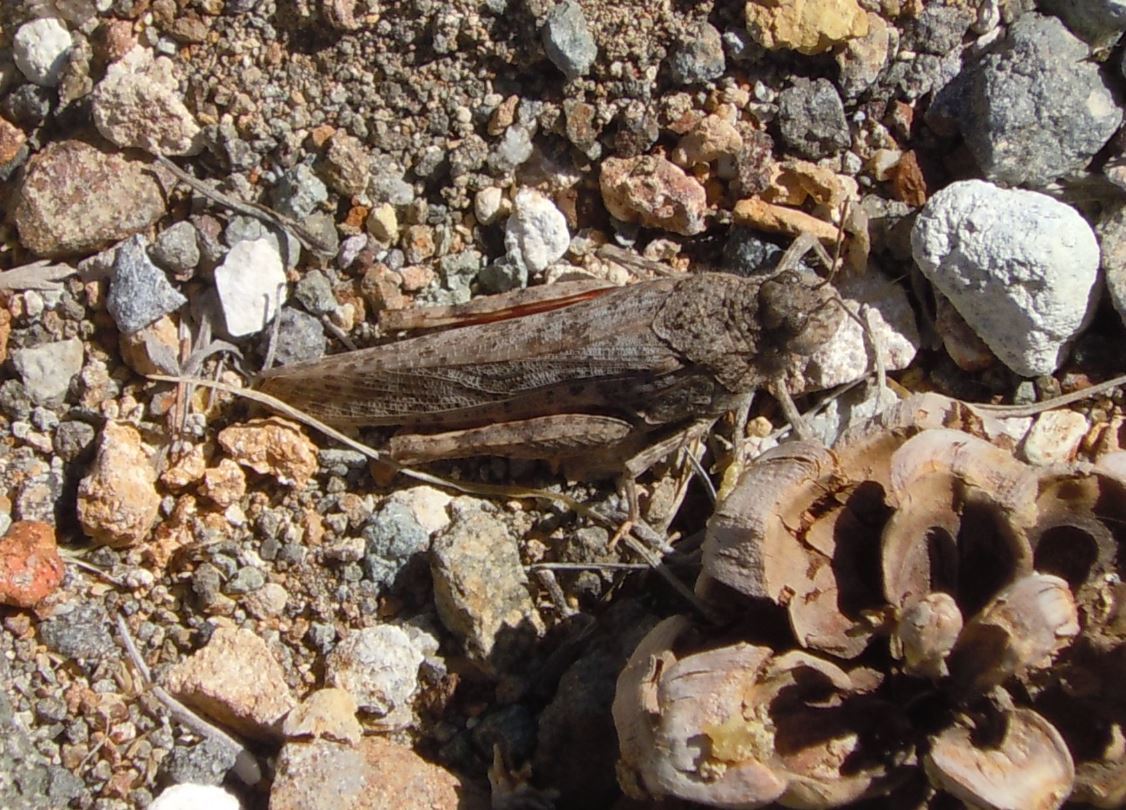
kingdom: Animalia
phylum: Arthropoda
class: Insecta
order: Orthoptera
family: Acrididae
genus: Cratypedes
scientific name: Cratypedes neglectus
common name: Pronotal range grasshopper
